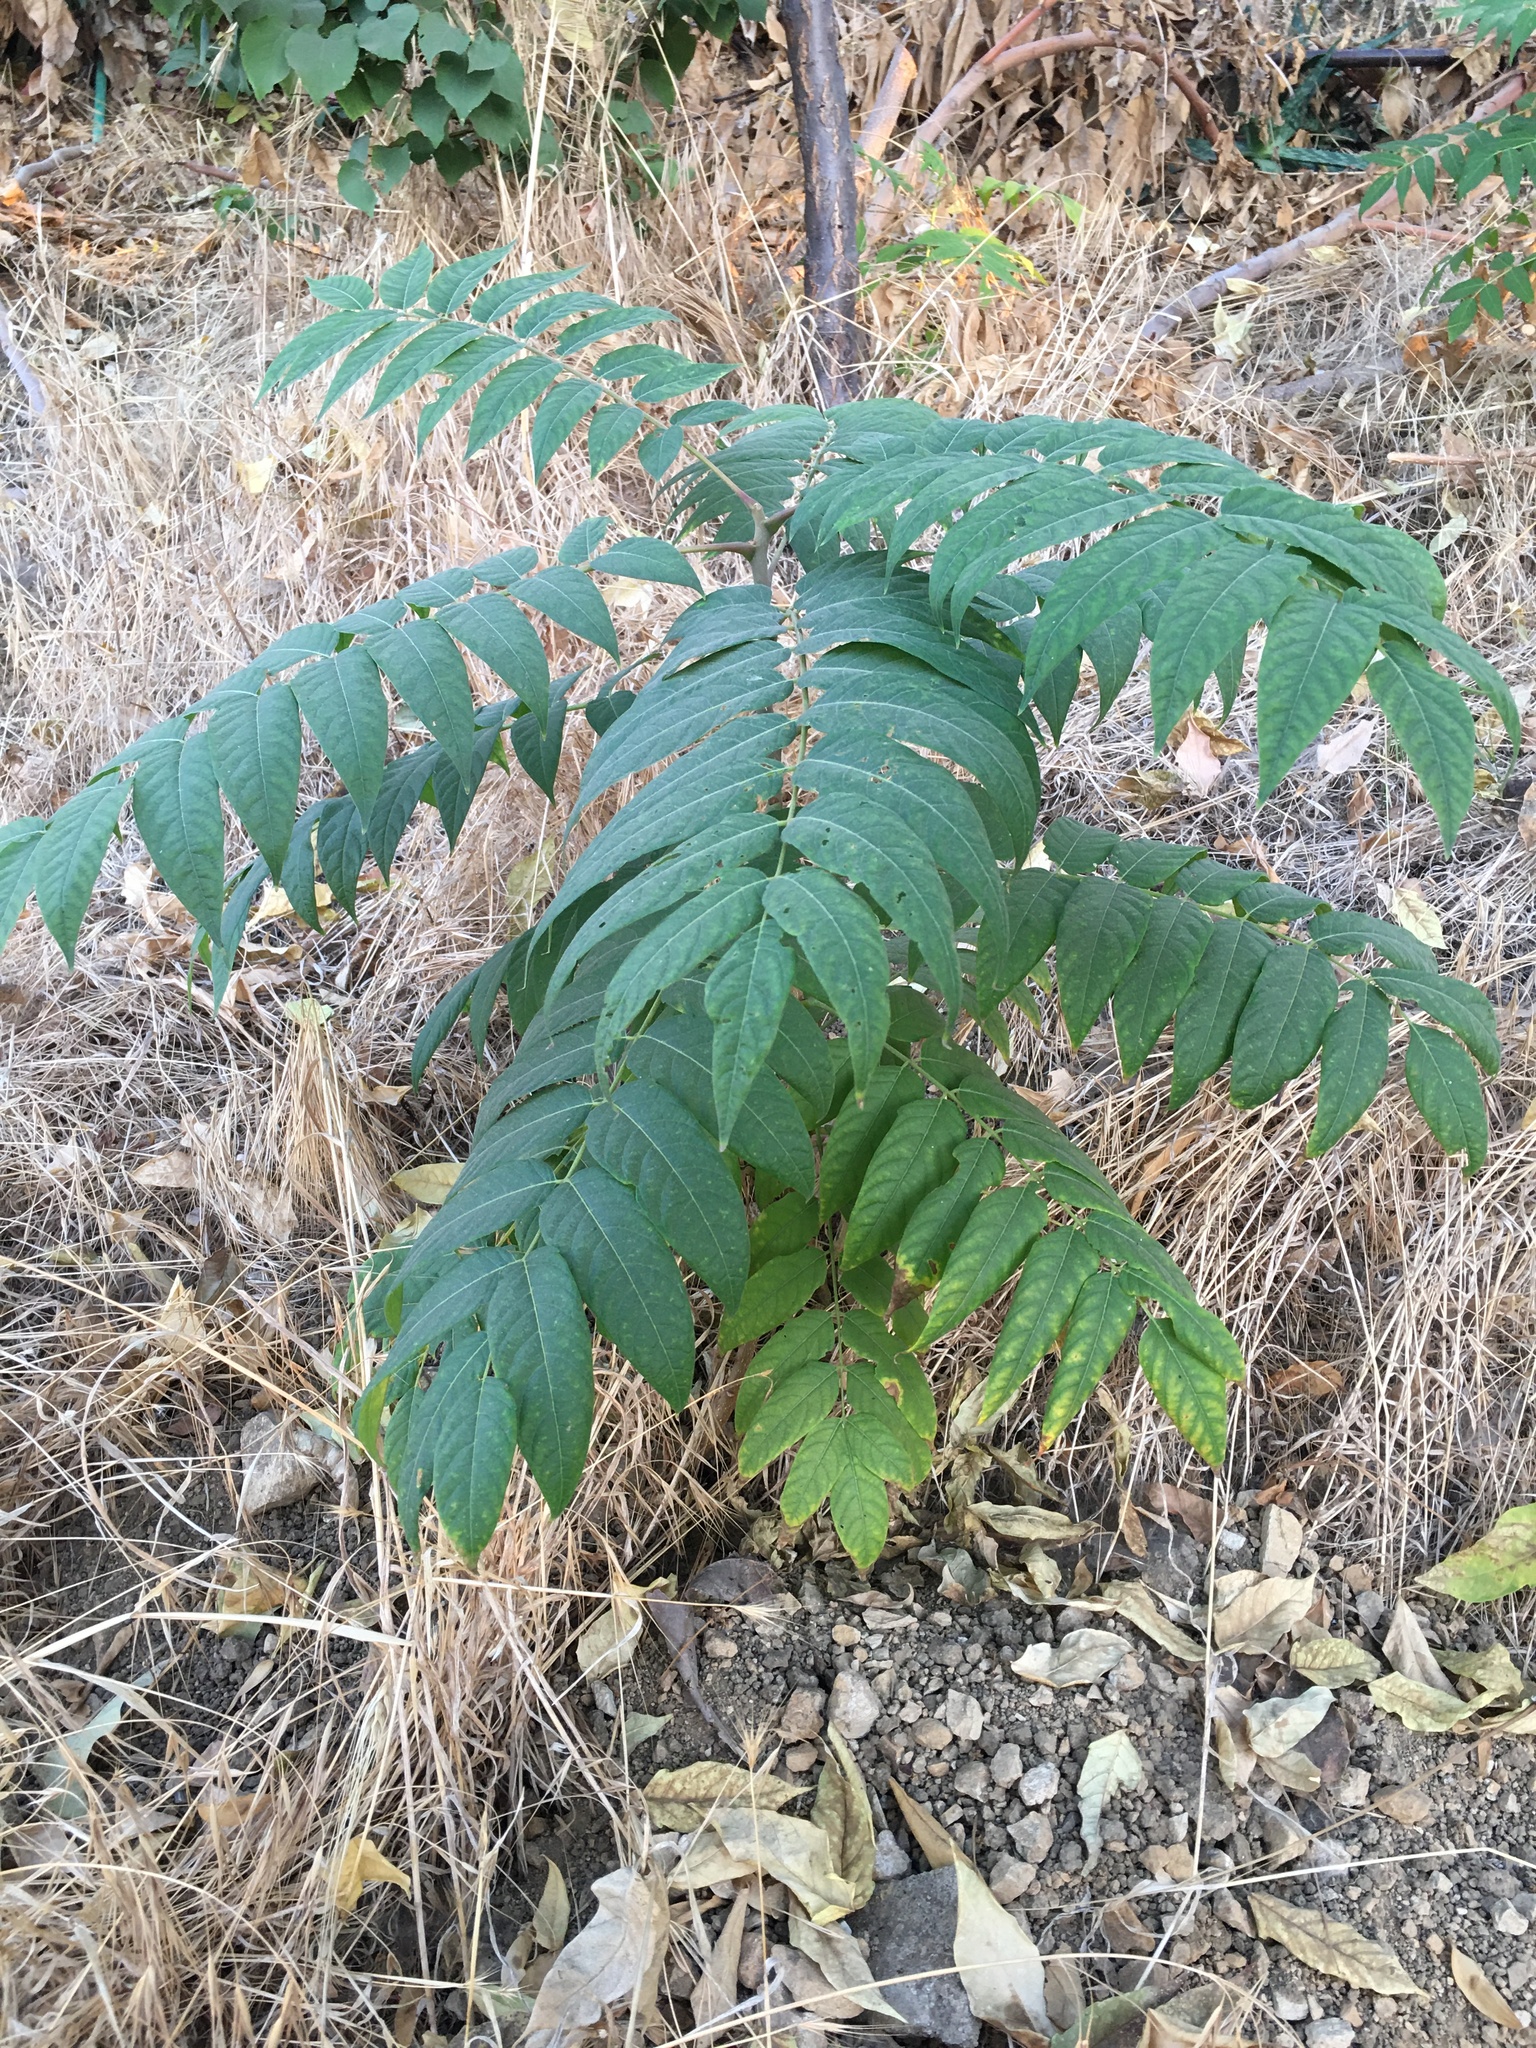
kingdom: Plantae
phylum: Tracheophyta
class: Magnoliopsida
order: Sapindales
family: Simaroubaceae
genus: Ailanthus
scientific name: Ailanthus altissima
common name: Tree-of-heaven
